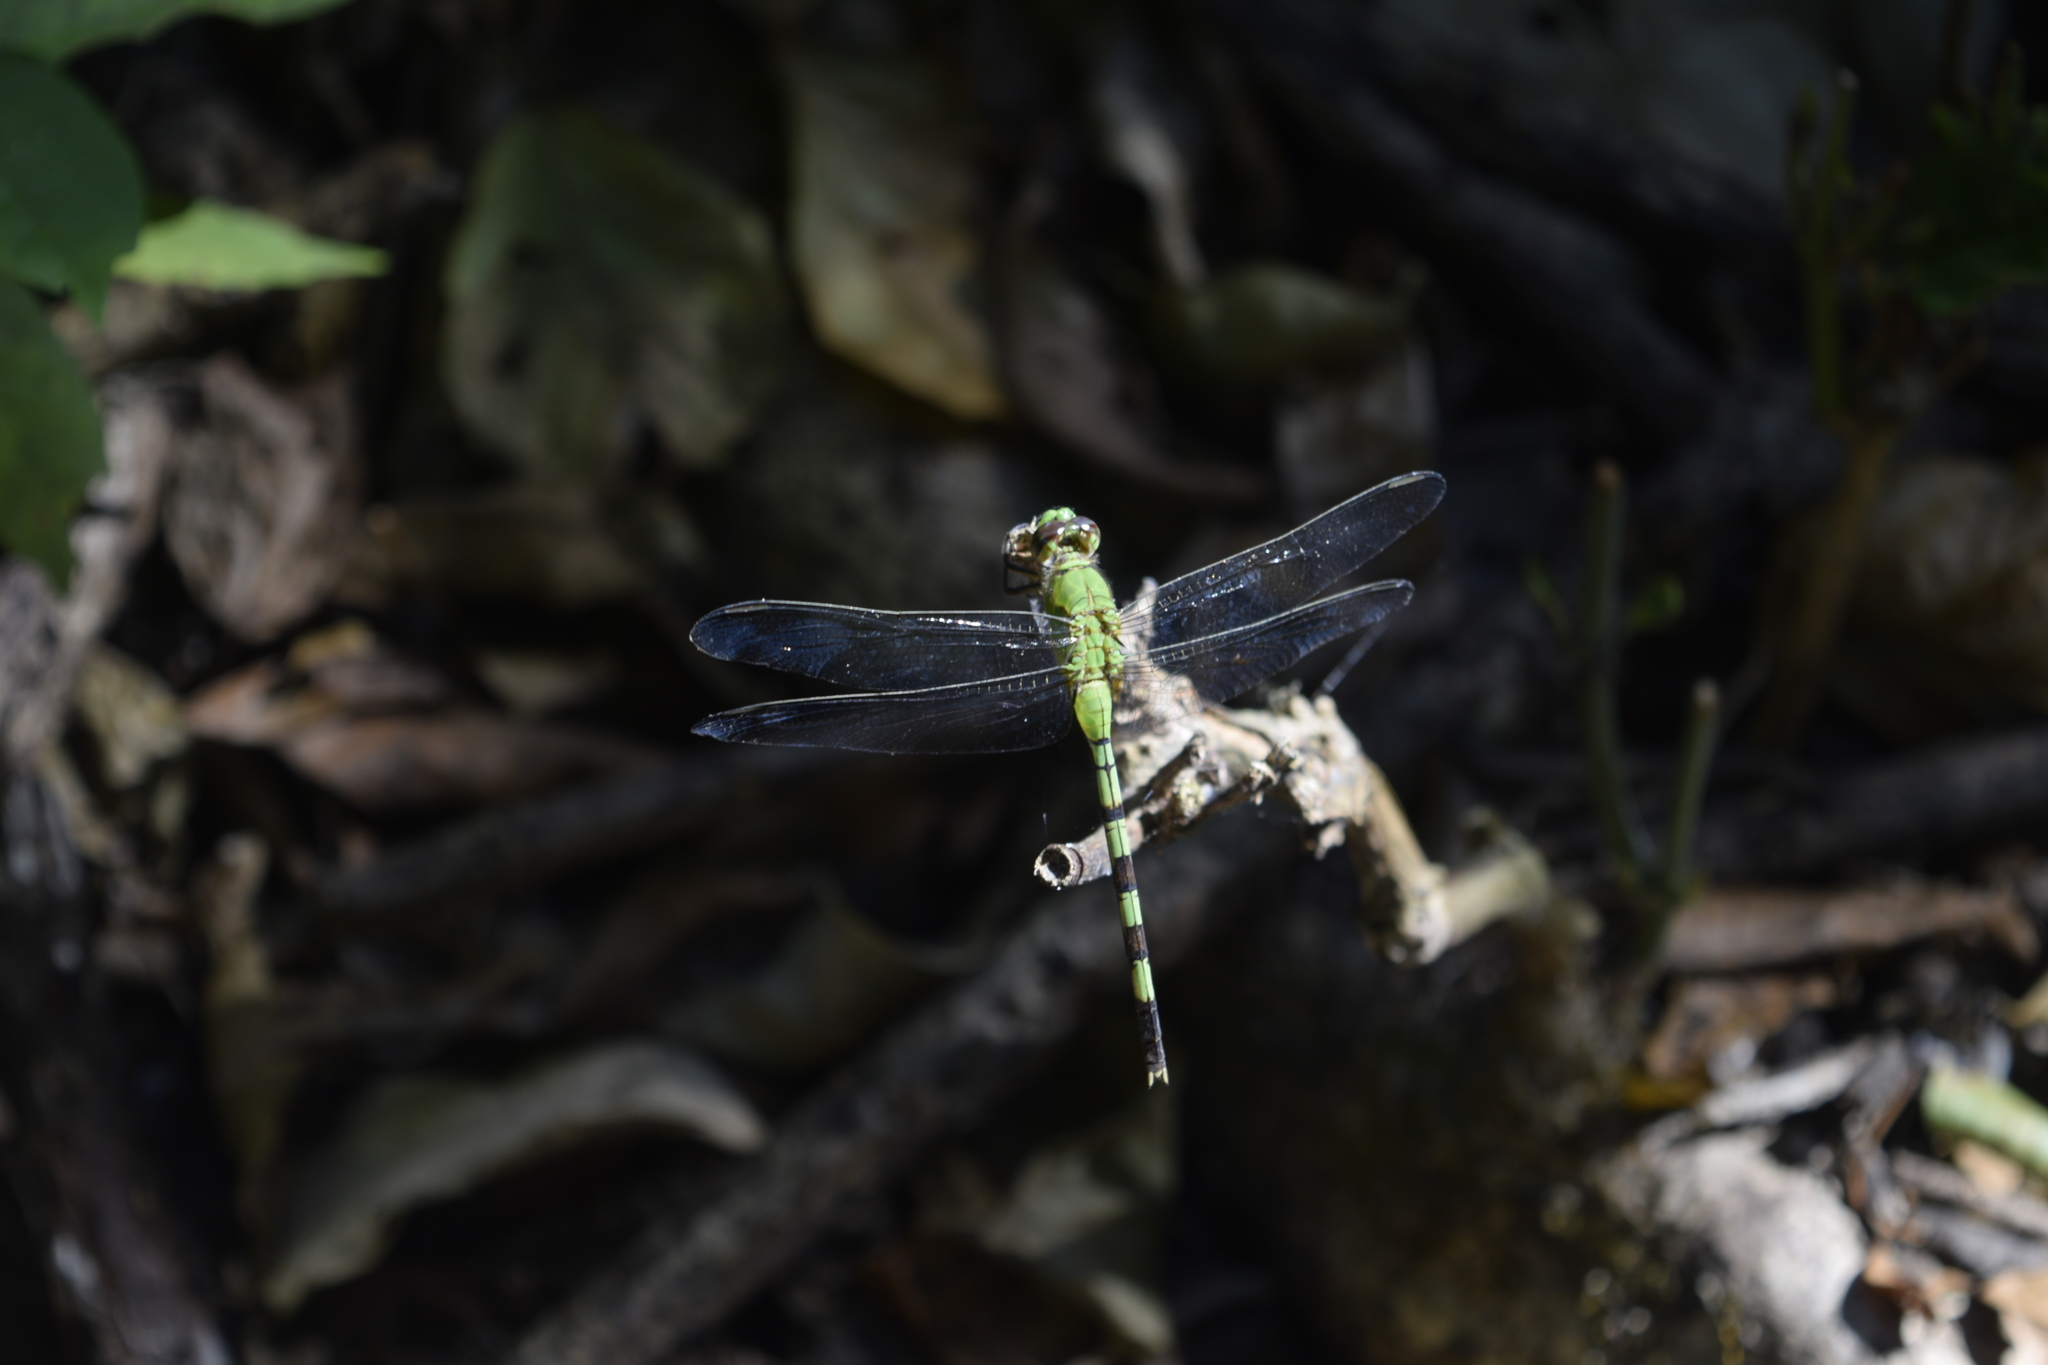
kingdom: Animalia
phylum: Arthropoda
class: Insecta
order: Odonata
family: Libellulidae
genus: Erythemis
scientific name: Erythemis vesiculosa
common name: Great pondhawk
